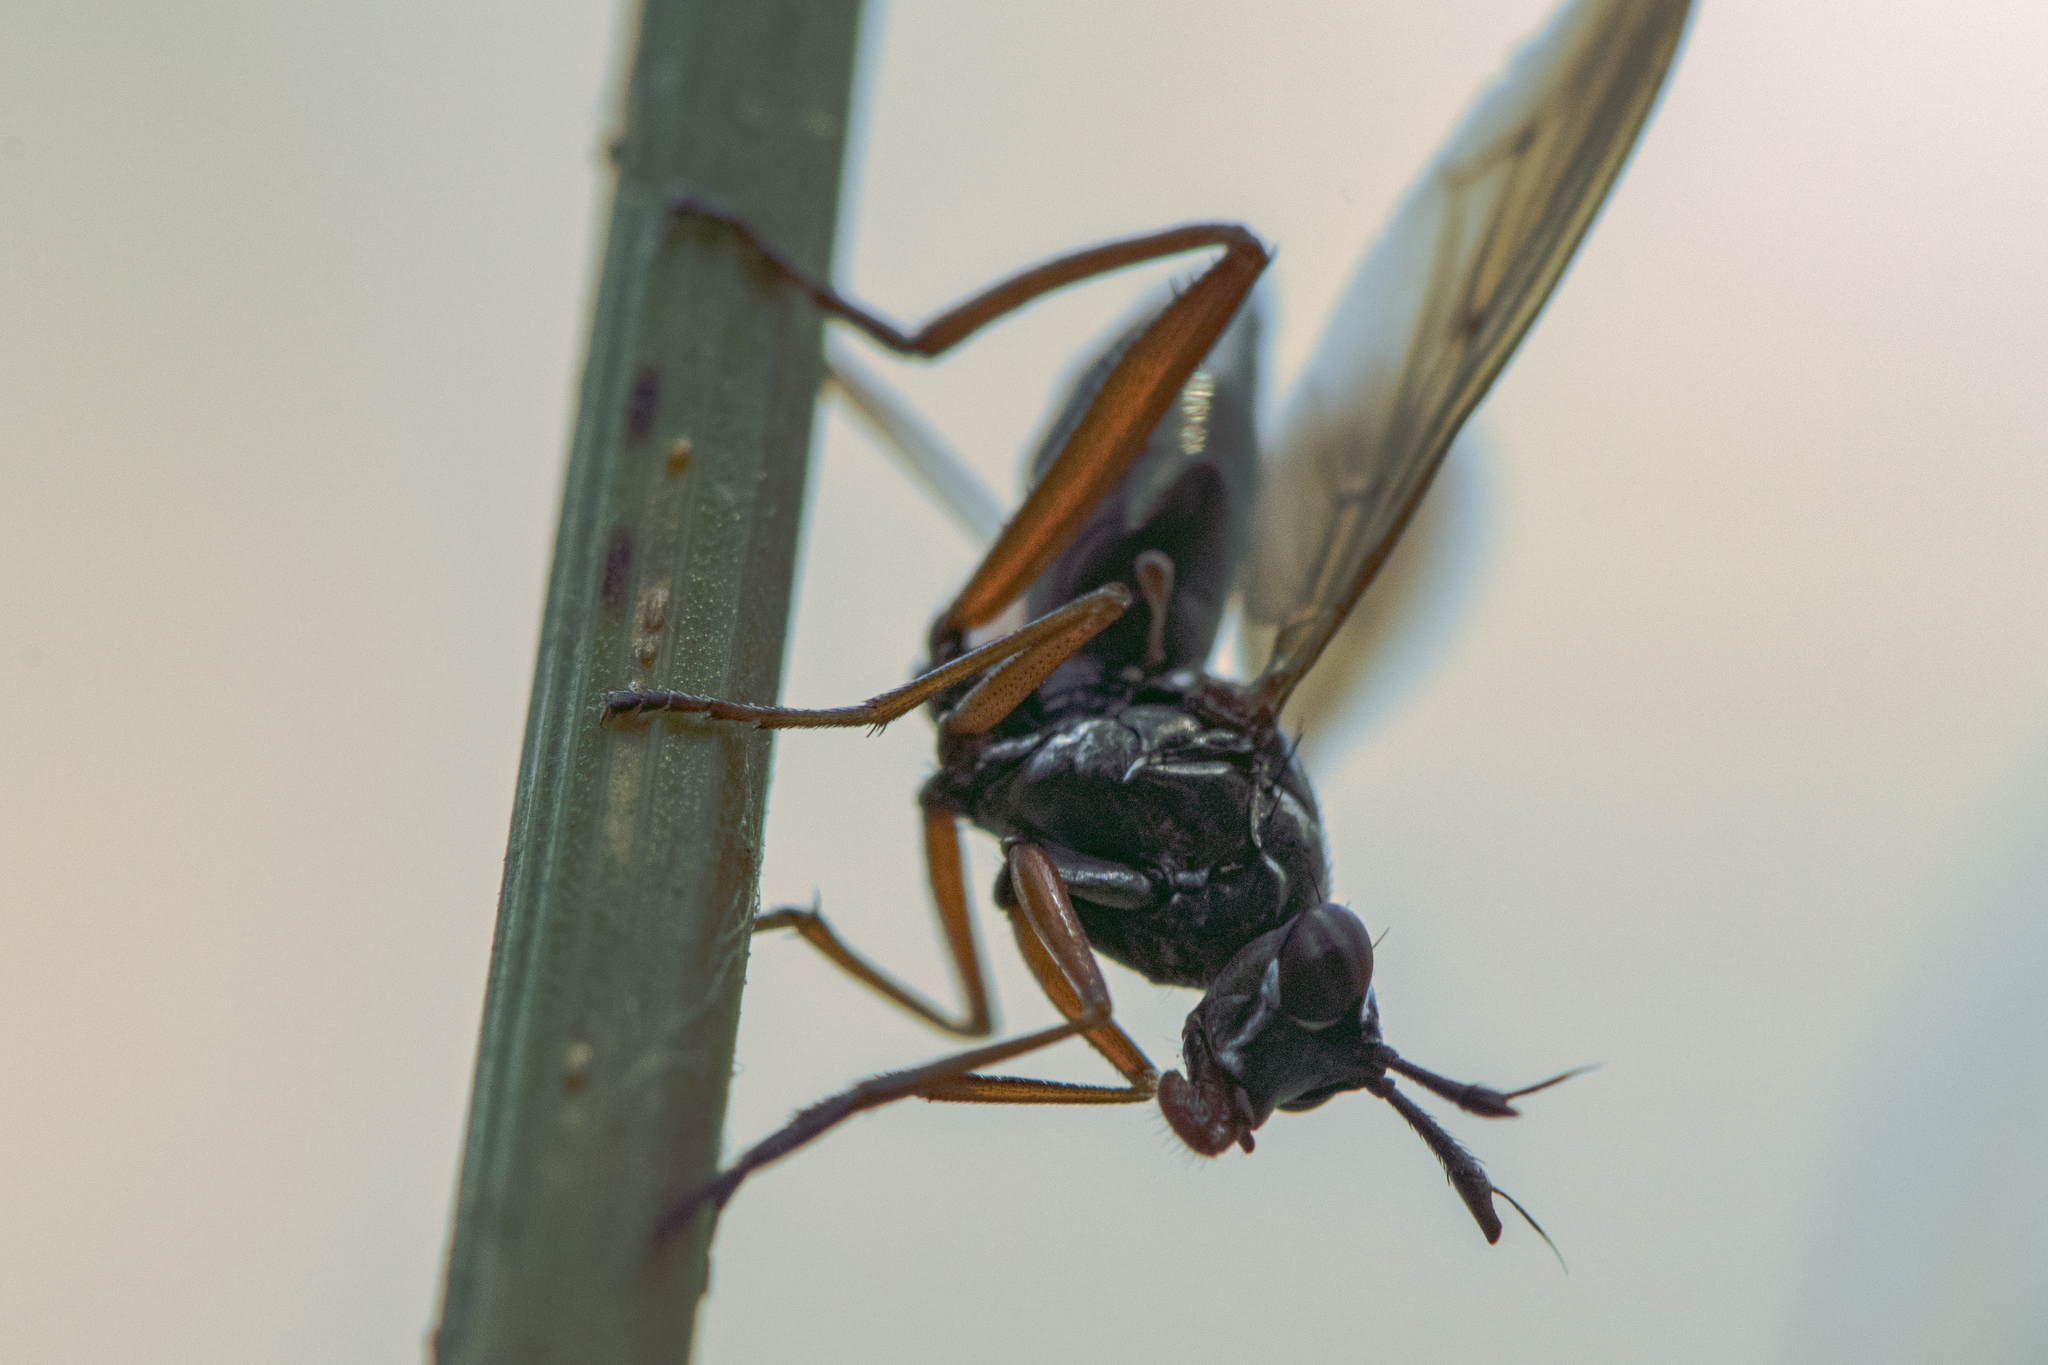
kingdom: Animalia
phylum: Arthropoda
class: Insecta
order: Diptera
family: Sciomyzidae
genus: Sepedon
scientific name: Sepedon sphegea
